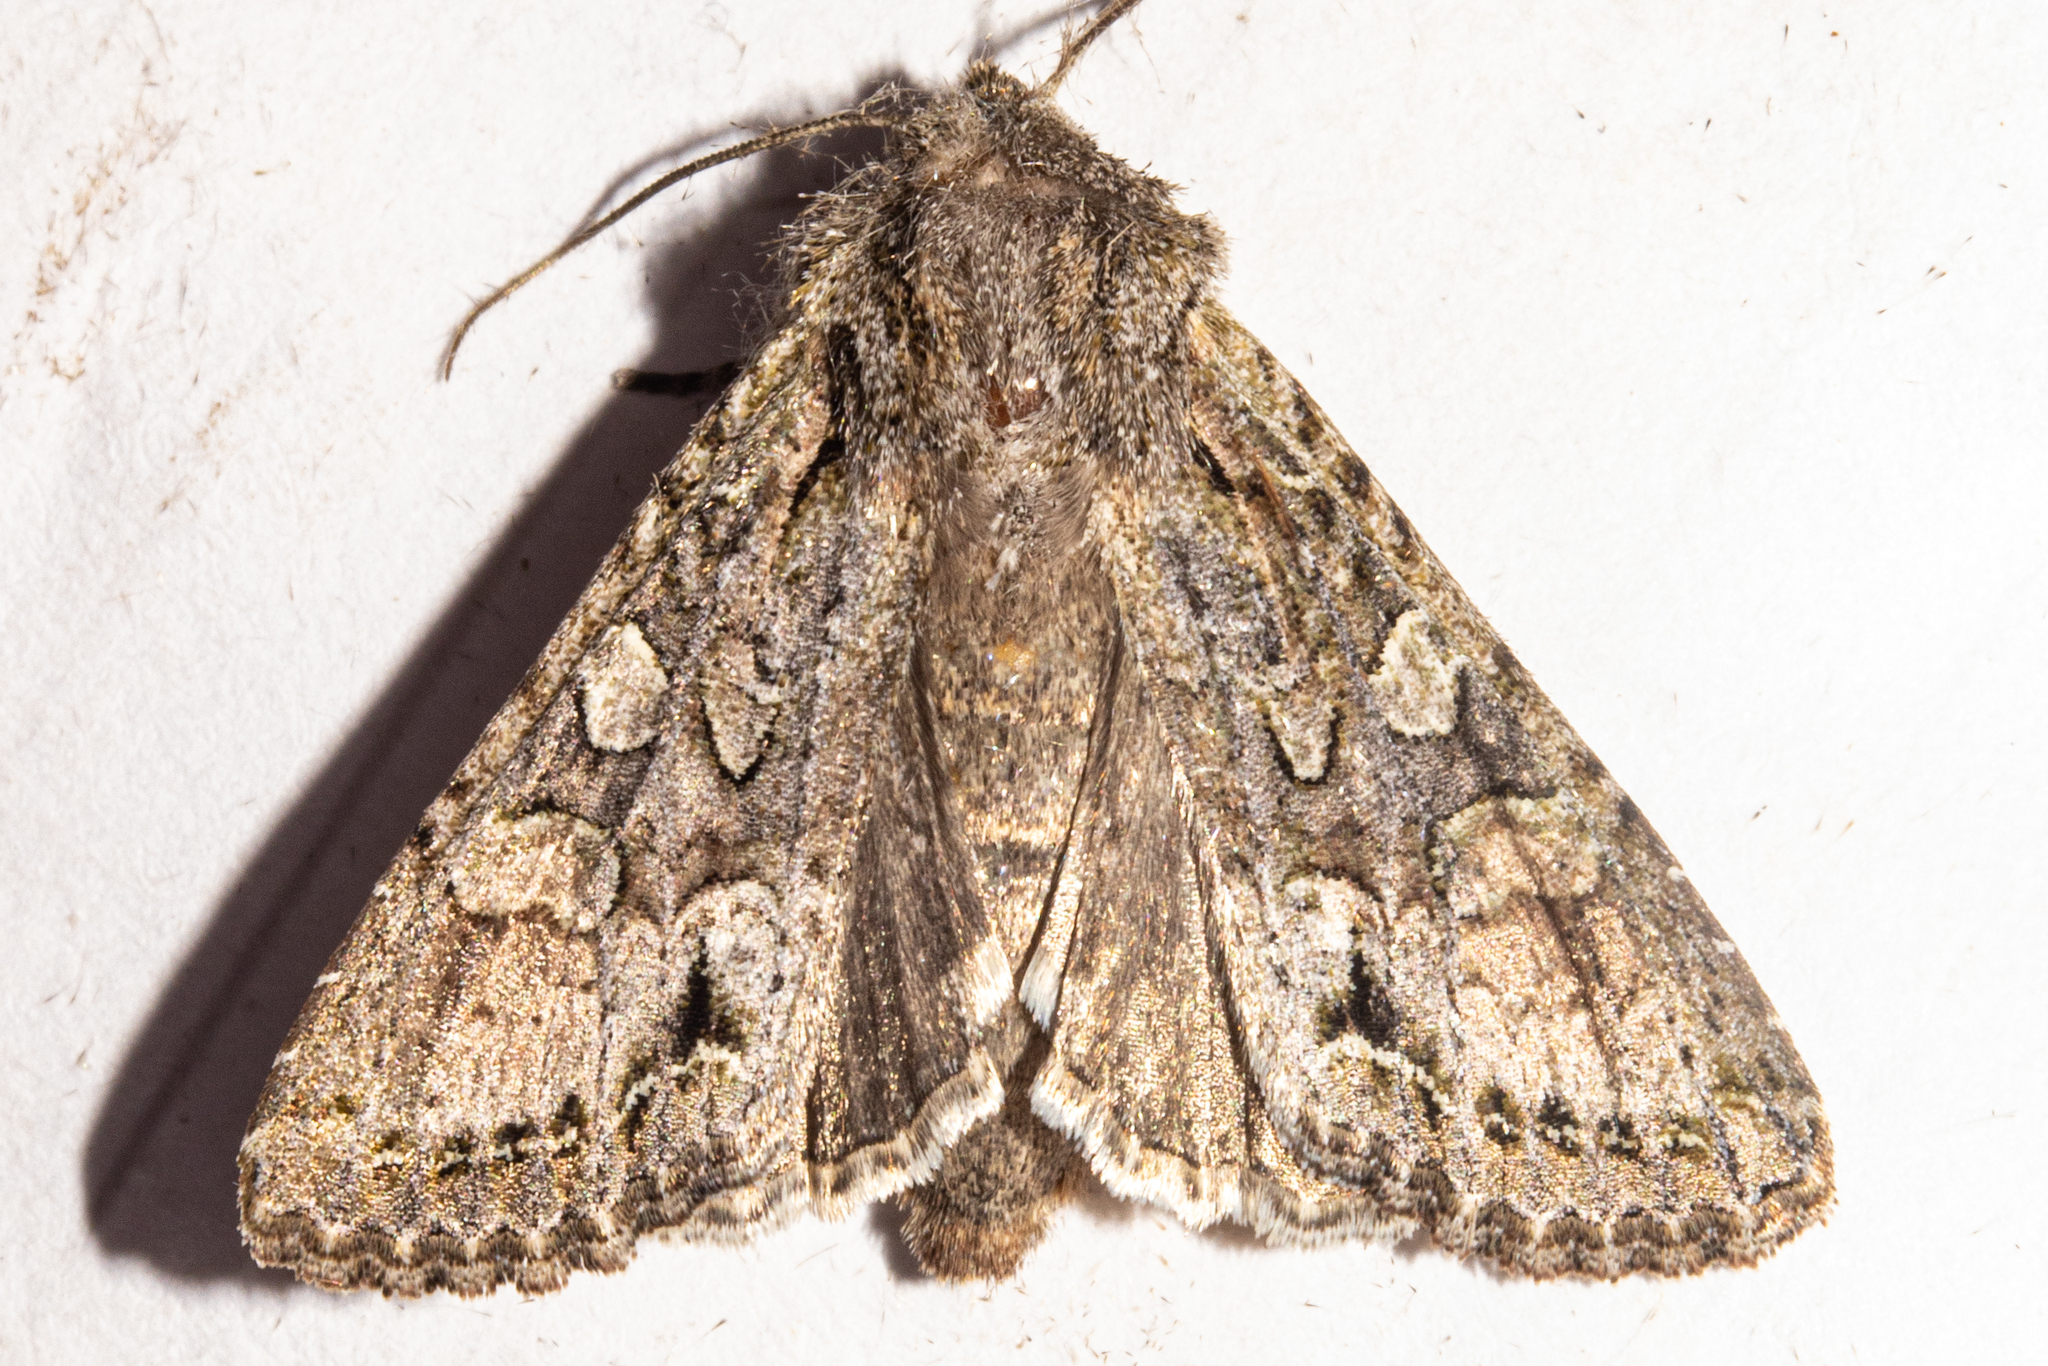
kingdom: Animalia
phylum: Arthropoda
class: Insecta
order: Lepidoptera
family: Noctuidae
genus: Ichneutica
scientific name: Ichneutica mutans
